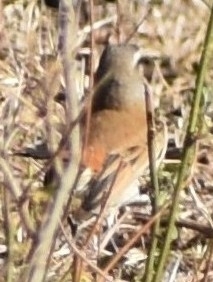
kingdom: Animalia
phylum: Chordata
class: Aves
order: Passeriformes
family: Muscicapidae
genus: Erythropygia
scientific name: Erythropygia paena
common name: Kalahari scrub robin
